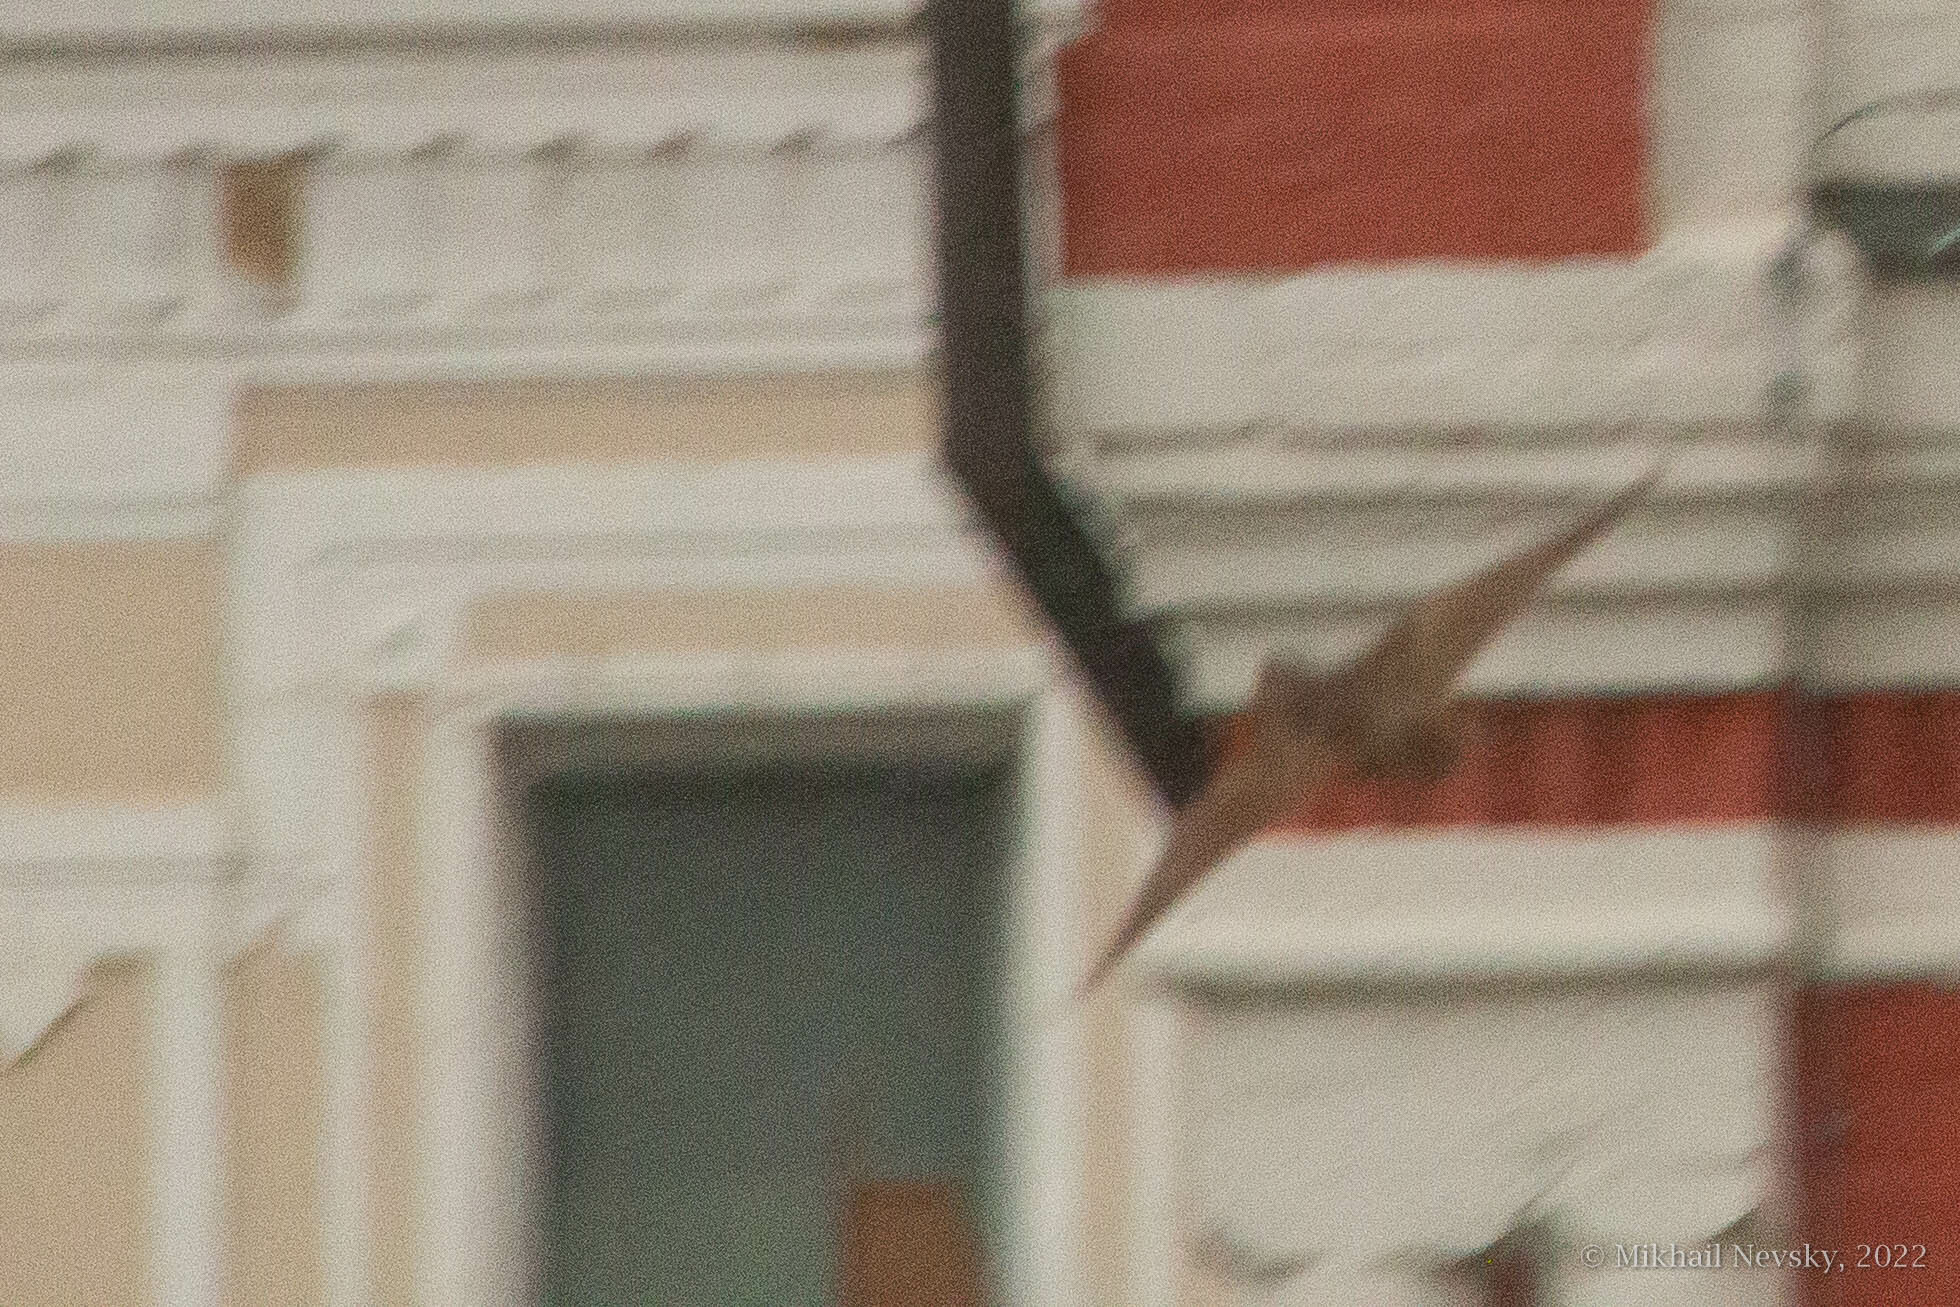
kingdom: Animalia
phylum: Chordata
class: Aves
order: Charadriiformes
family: Scolopacidae
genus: Scolopax
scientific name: Scolopax rusticola
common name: Eurasian woodcock
